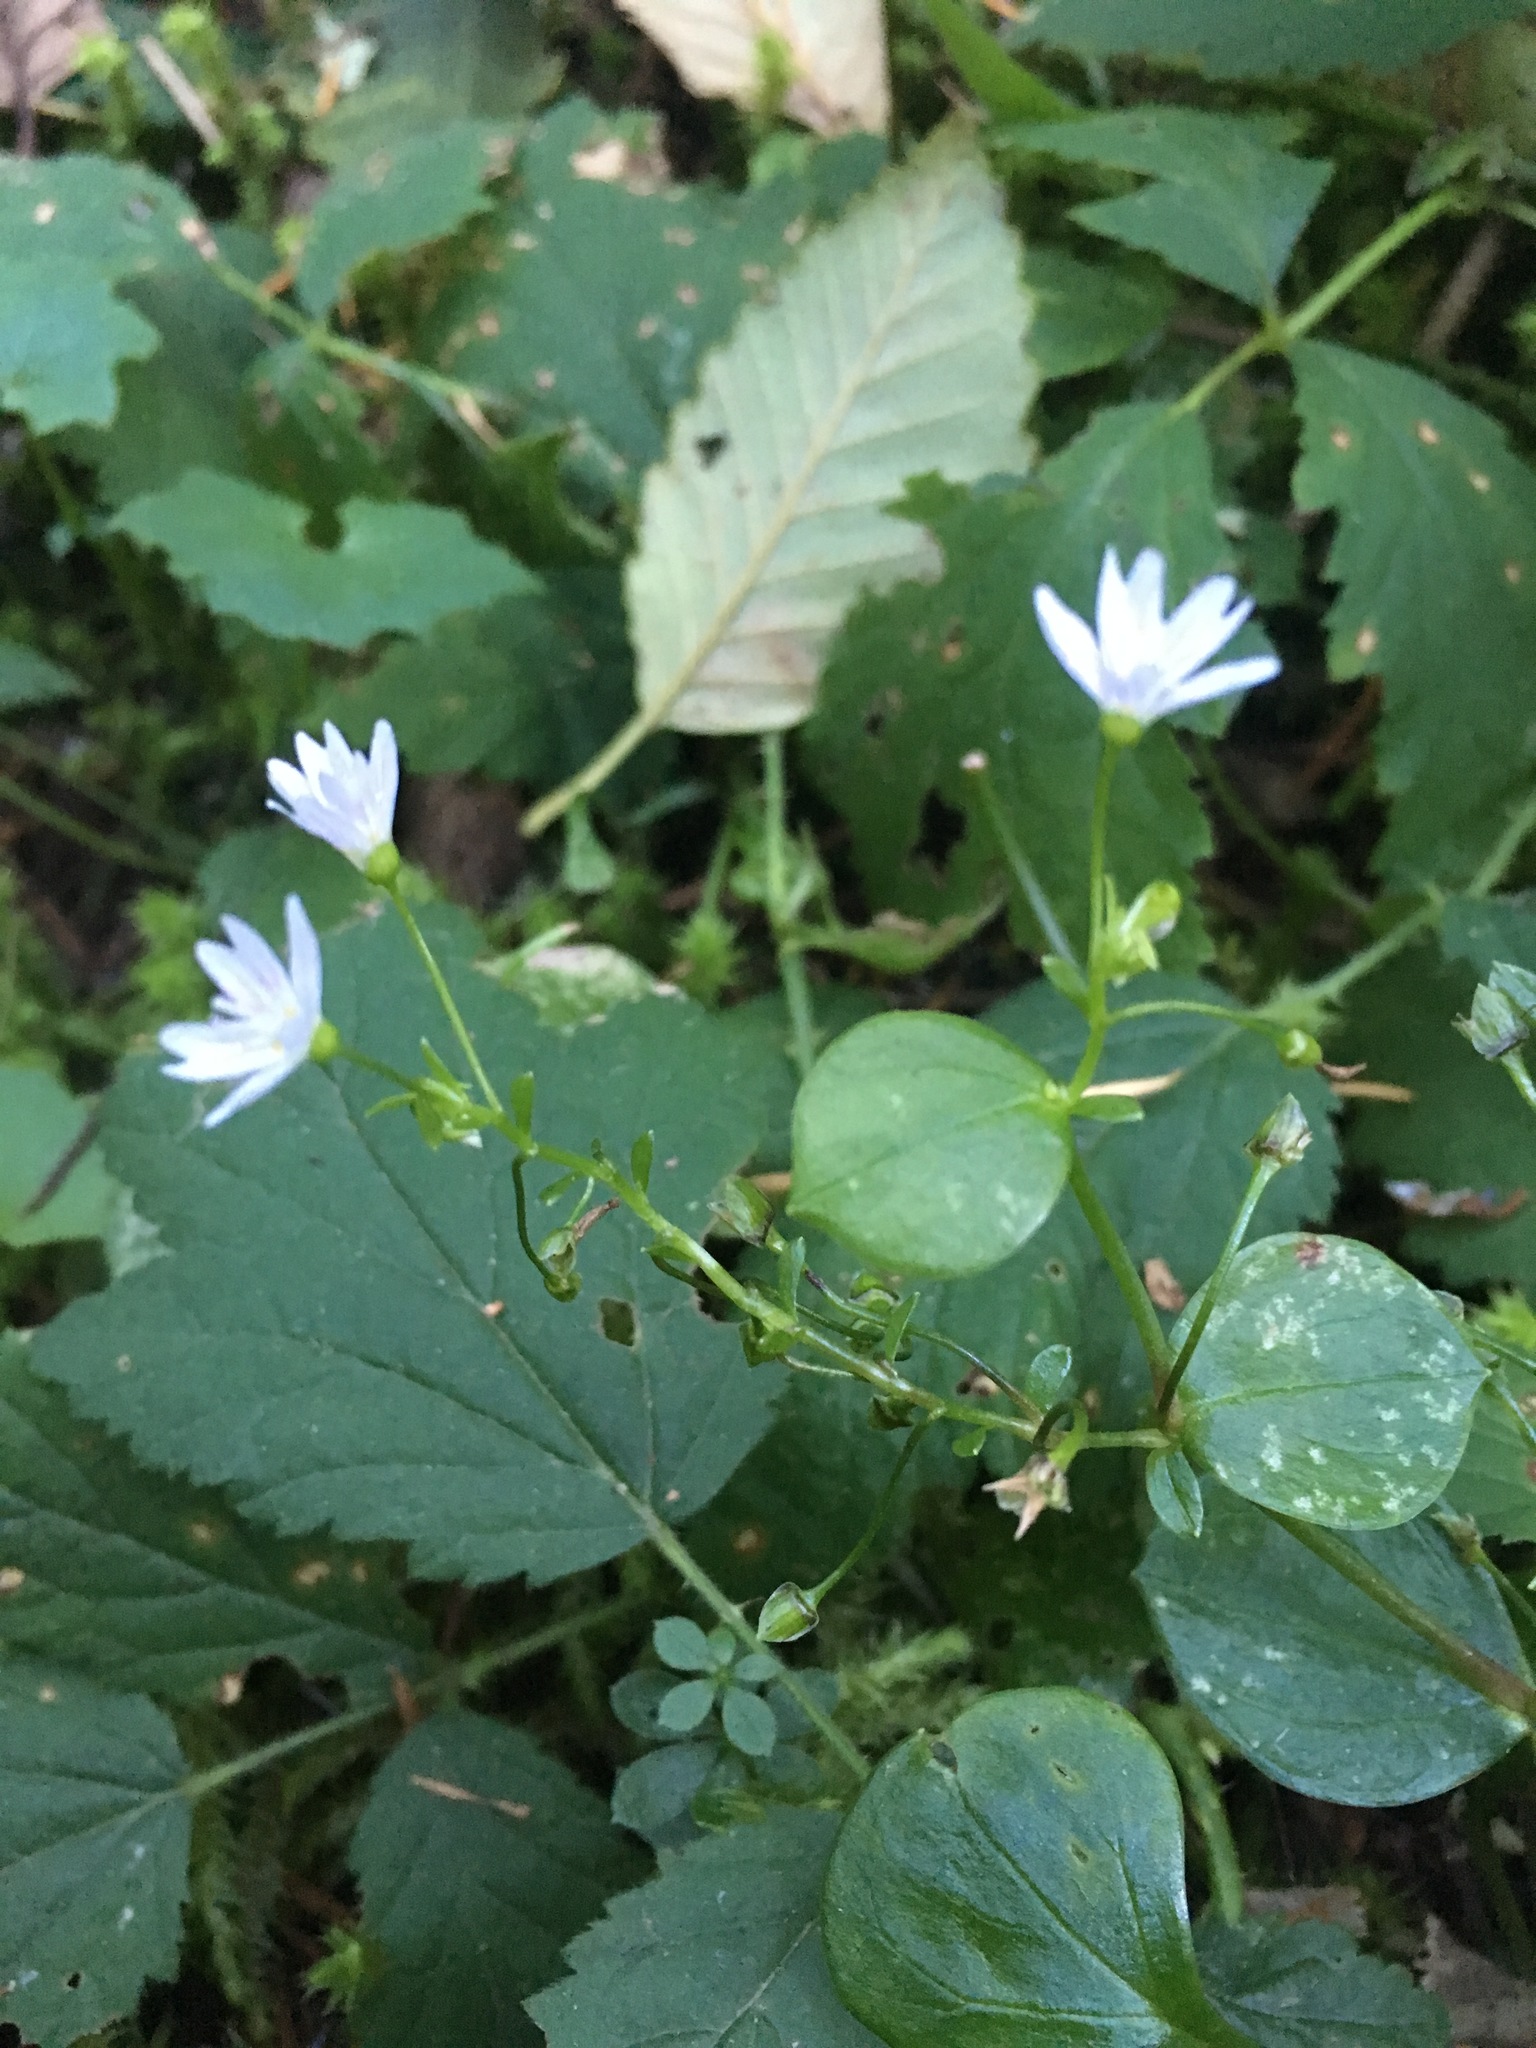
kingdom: Plantae
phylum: Tracheophyta
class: Magnoliopsida
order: Caryophyllales
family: Montiaceae
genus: Claytonia
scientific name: Claytonia sibirica
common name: Pink purslane
